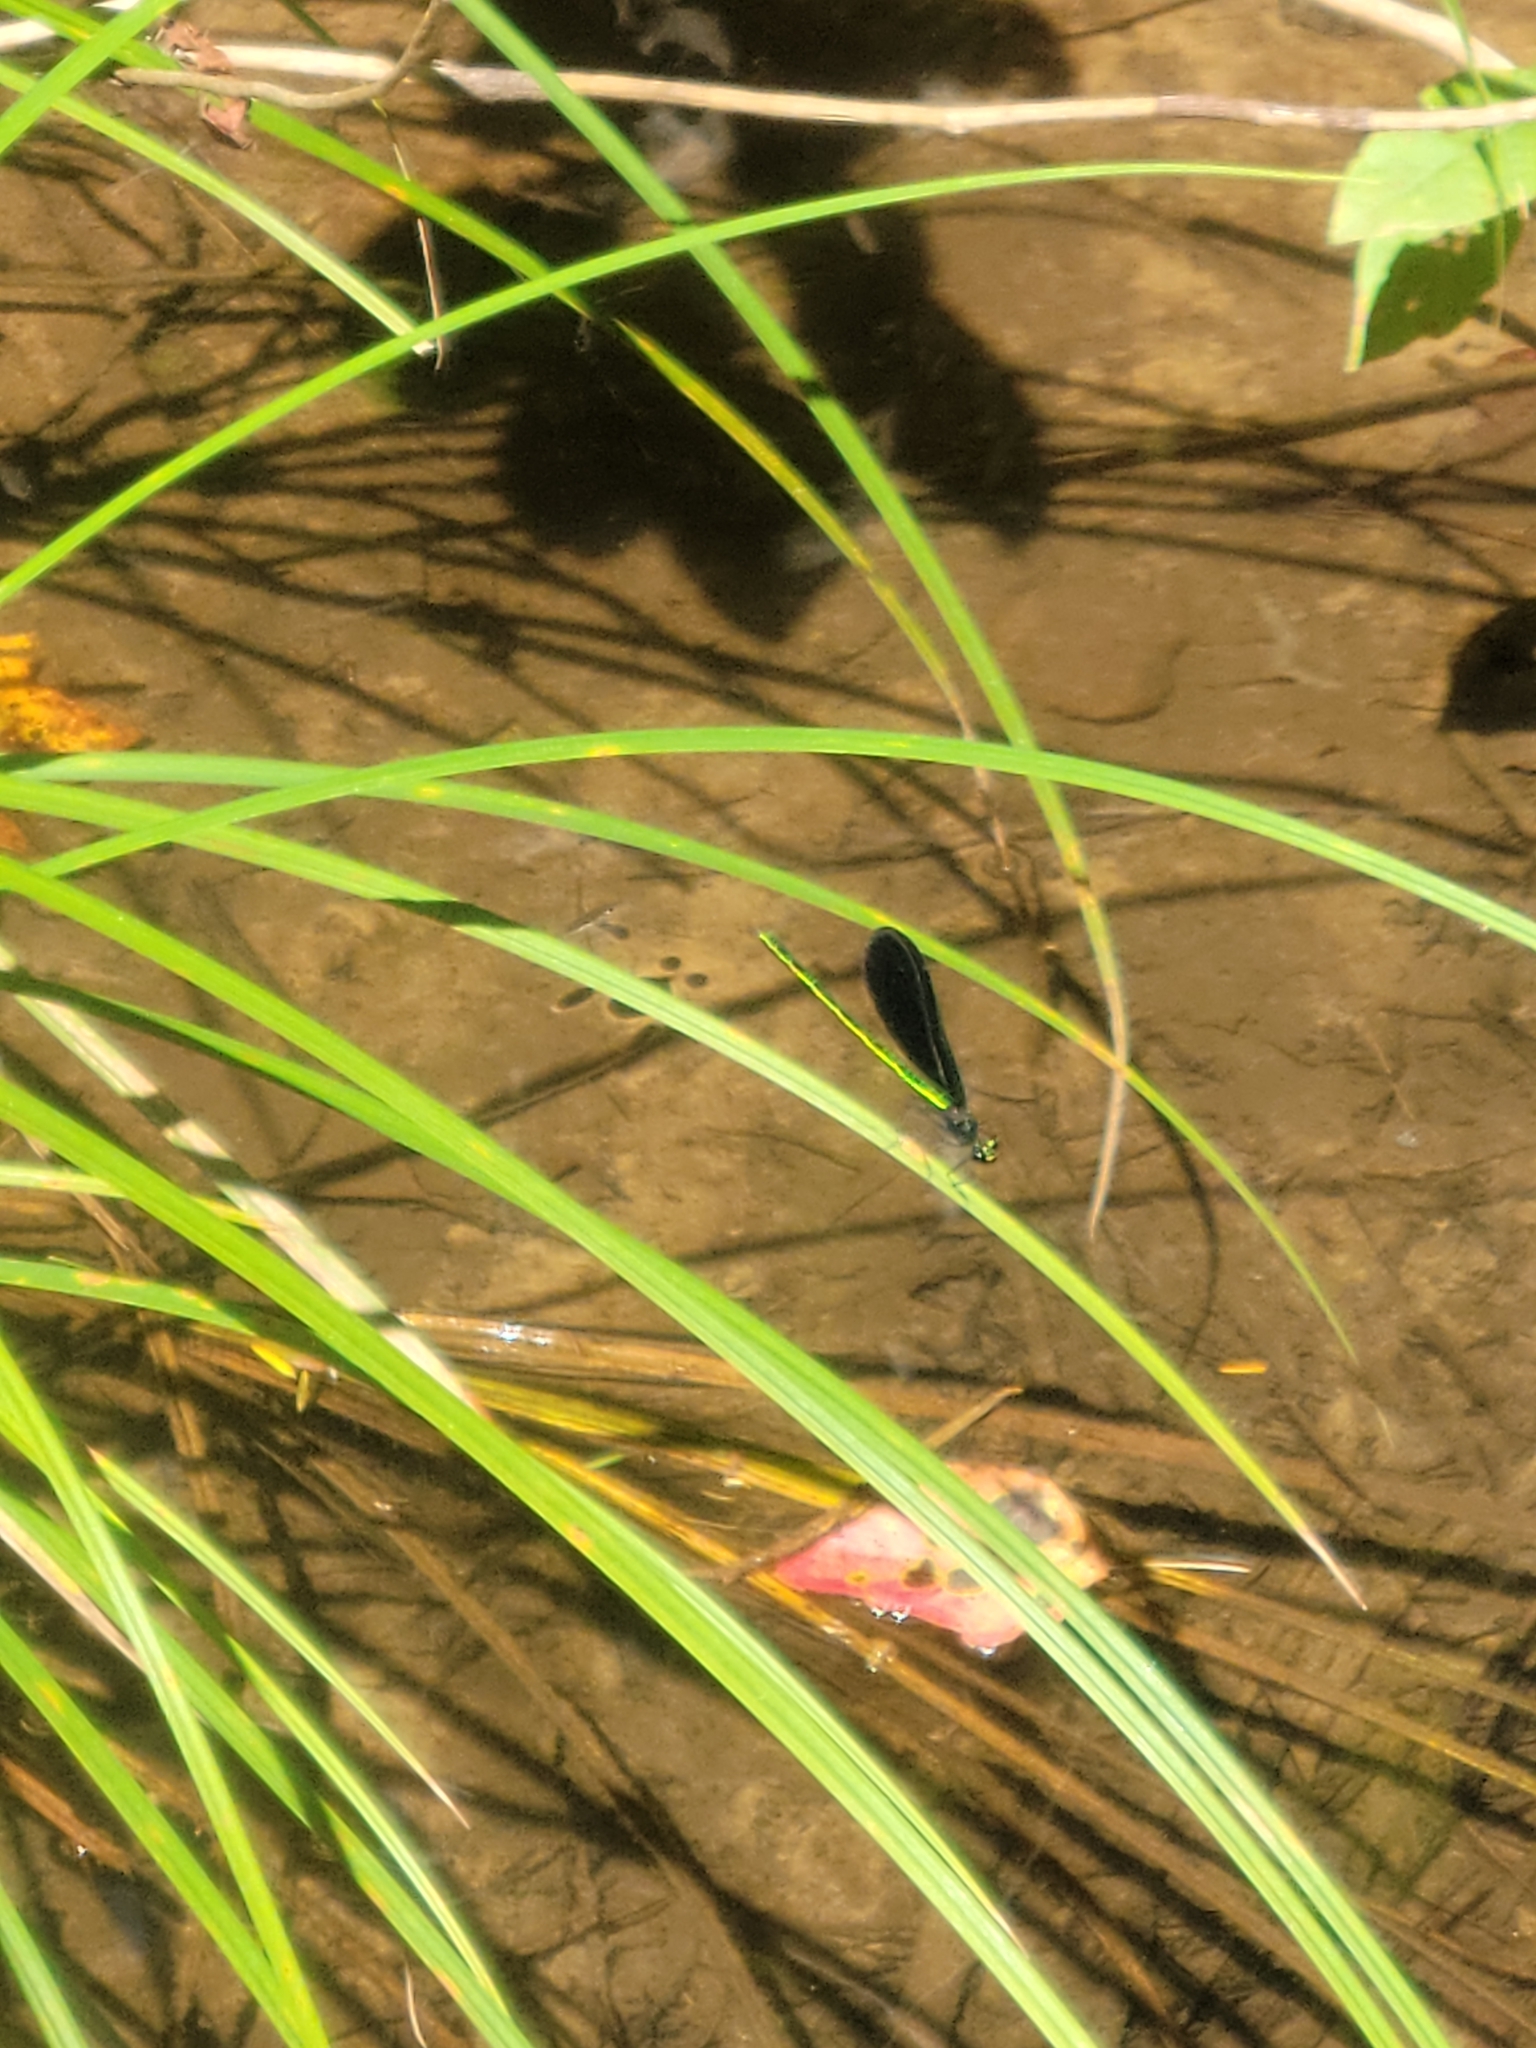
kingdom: Animalia
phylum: Arthropoda
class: Insecta
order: Odonata
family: Calopterygidae
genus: Calopteryx
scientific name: Calopteryx maculata
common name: Ebony jewelwing
